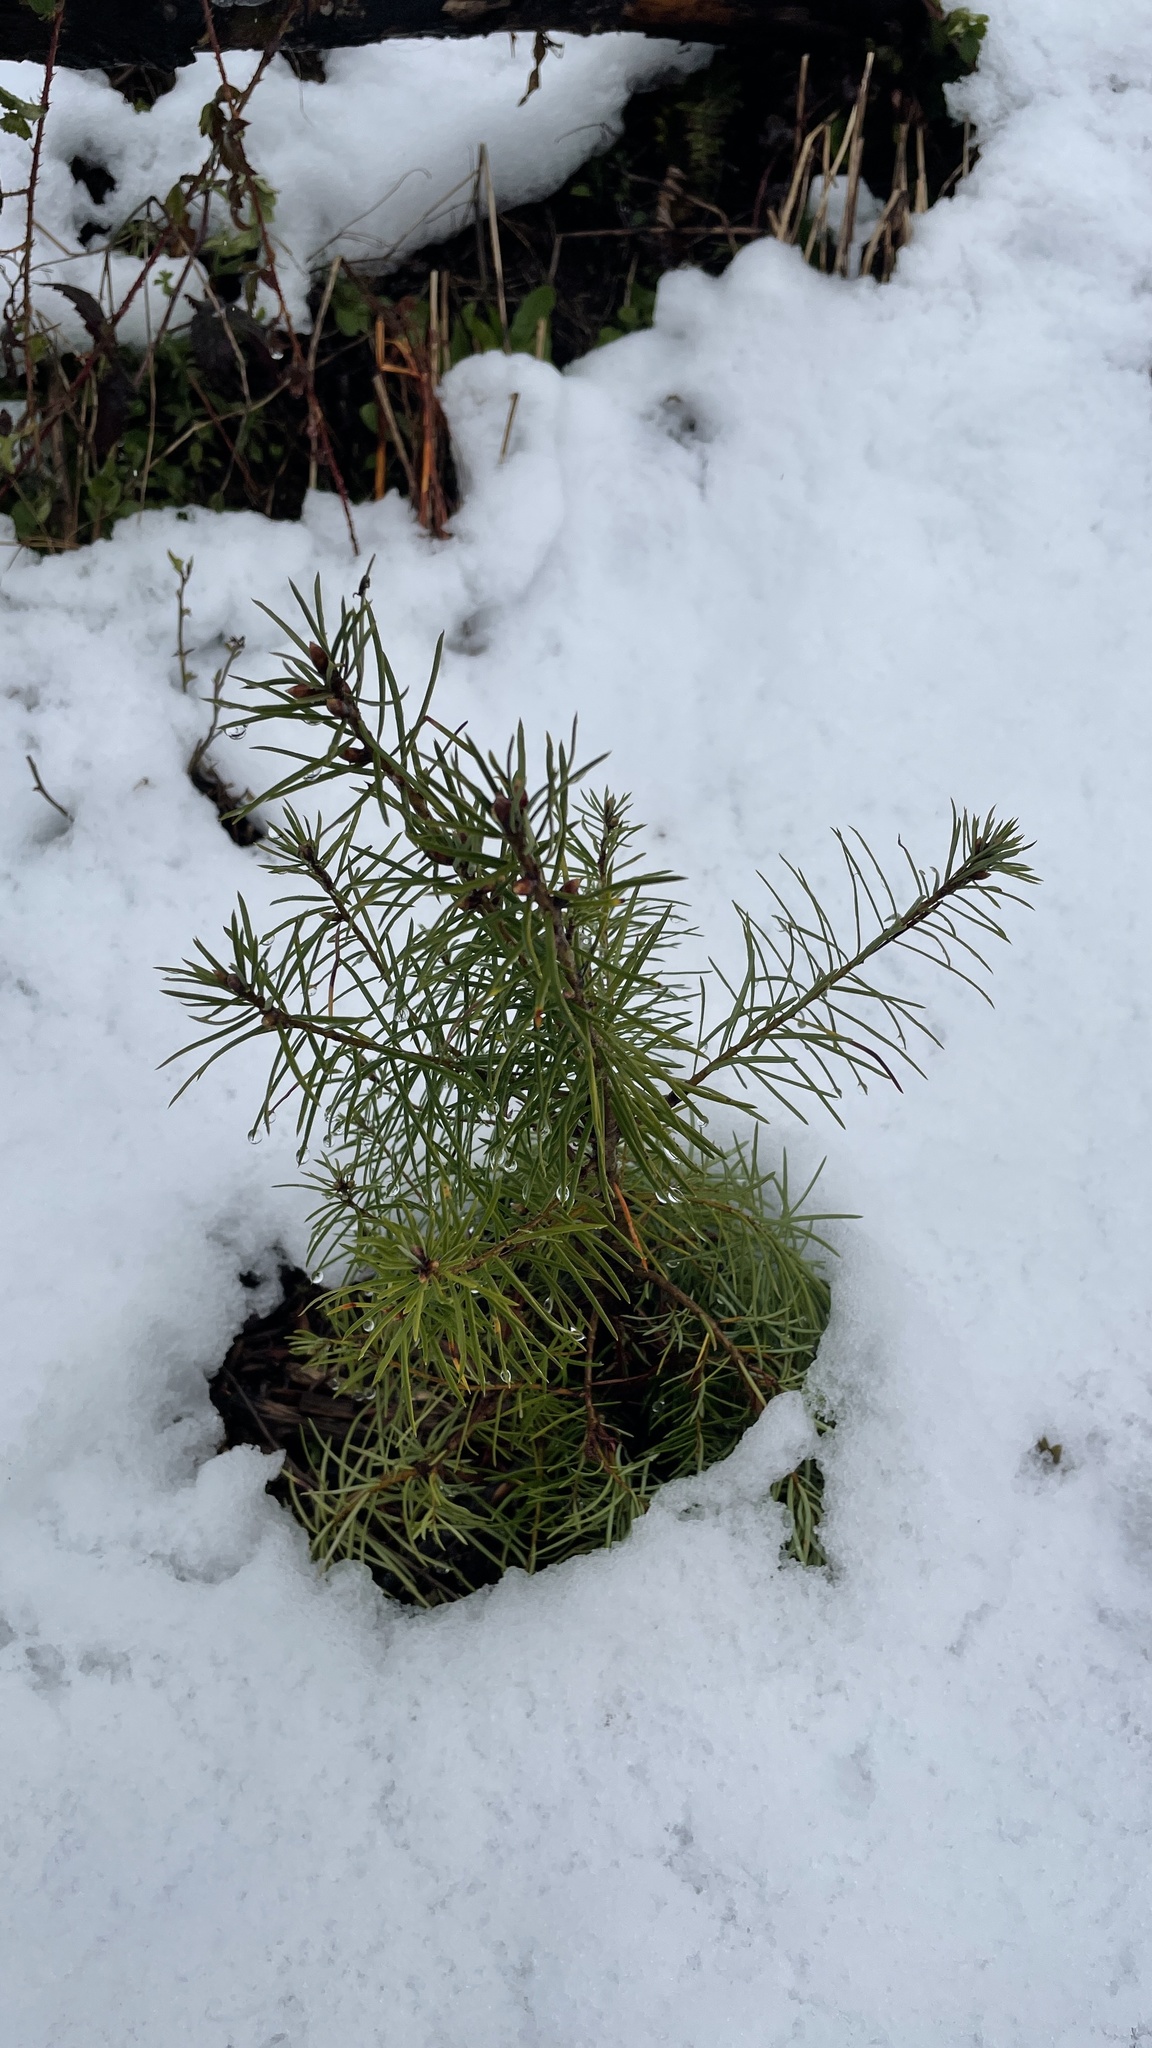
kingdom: Plantae
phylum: Tracheophyta
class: Pinopsida
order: Pinales
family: Pinaceae
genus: Pseudotsuga
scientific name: Pseudotsuga menziesii
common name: Douglas fir
